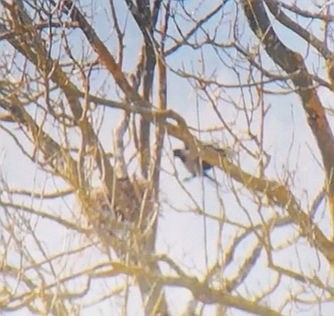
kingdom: Animalia
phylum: Chordata
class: Aves
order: Passeriformes
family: Corvidae
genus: Corvus
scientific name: Corvus cornix
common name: Hooded crow
